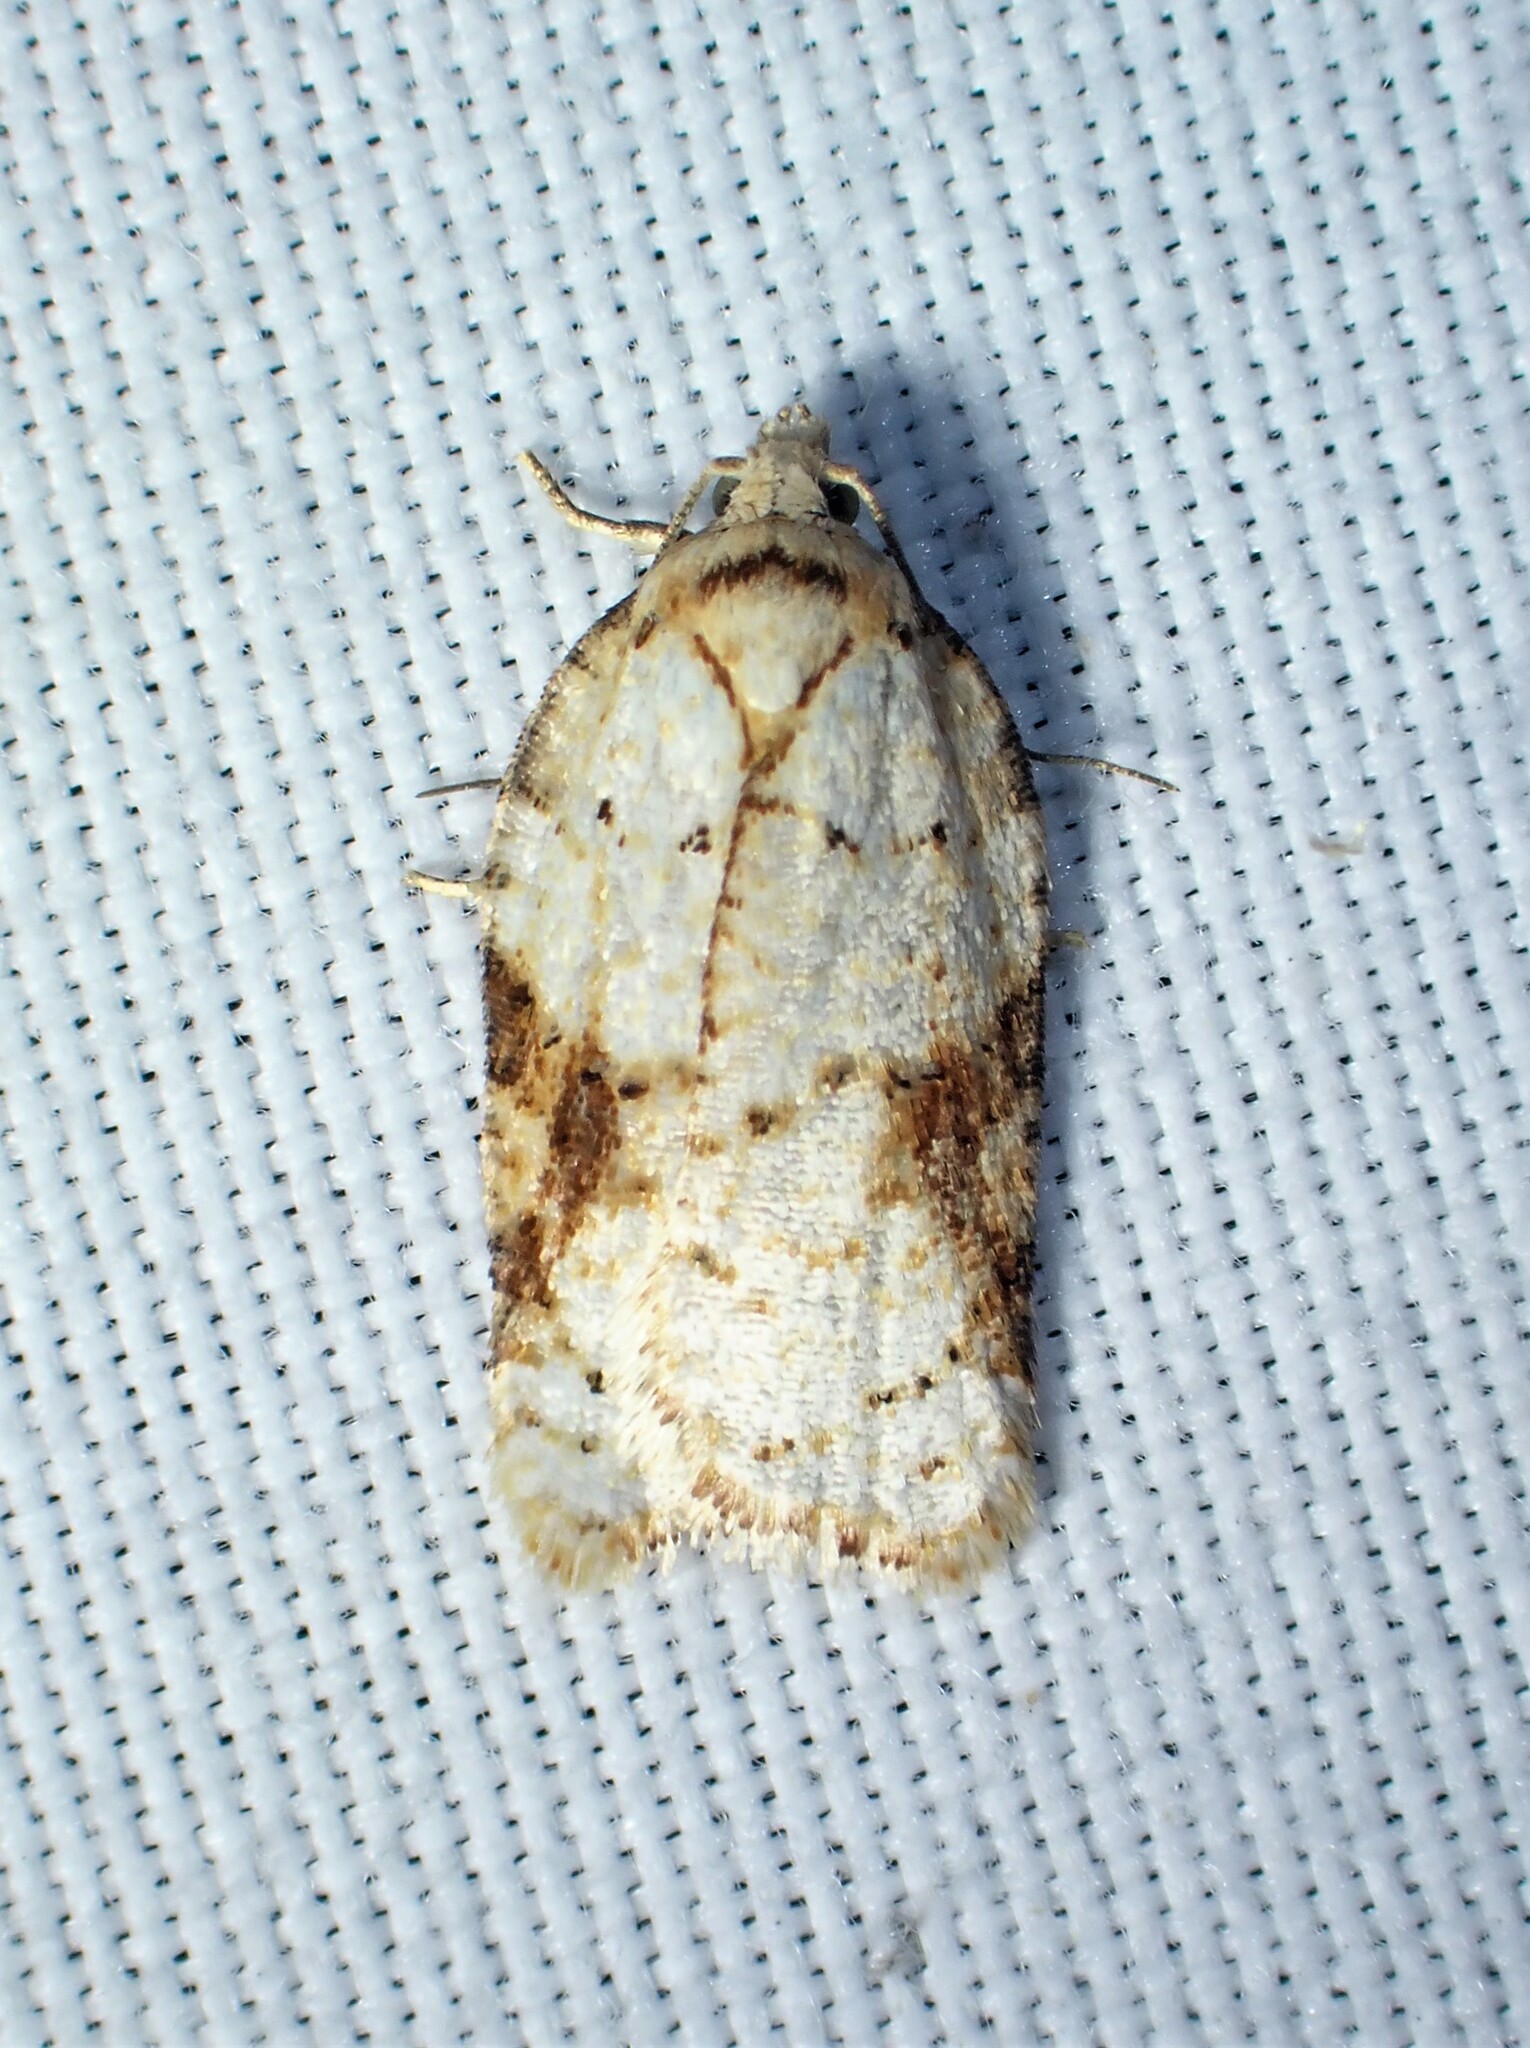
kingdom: Animalia
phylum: Arthropoda
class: Insecta
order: Lepidoptera
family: Tortricidae
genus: Acleris
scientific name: Acleris cervinana
